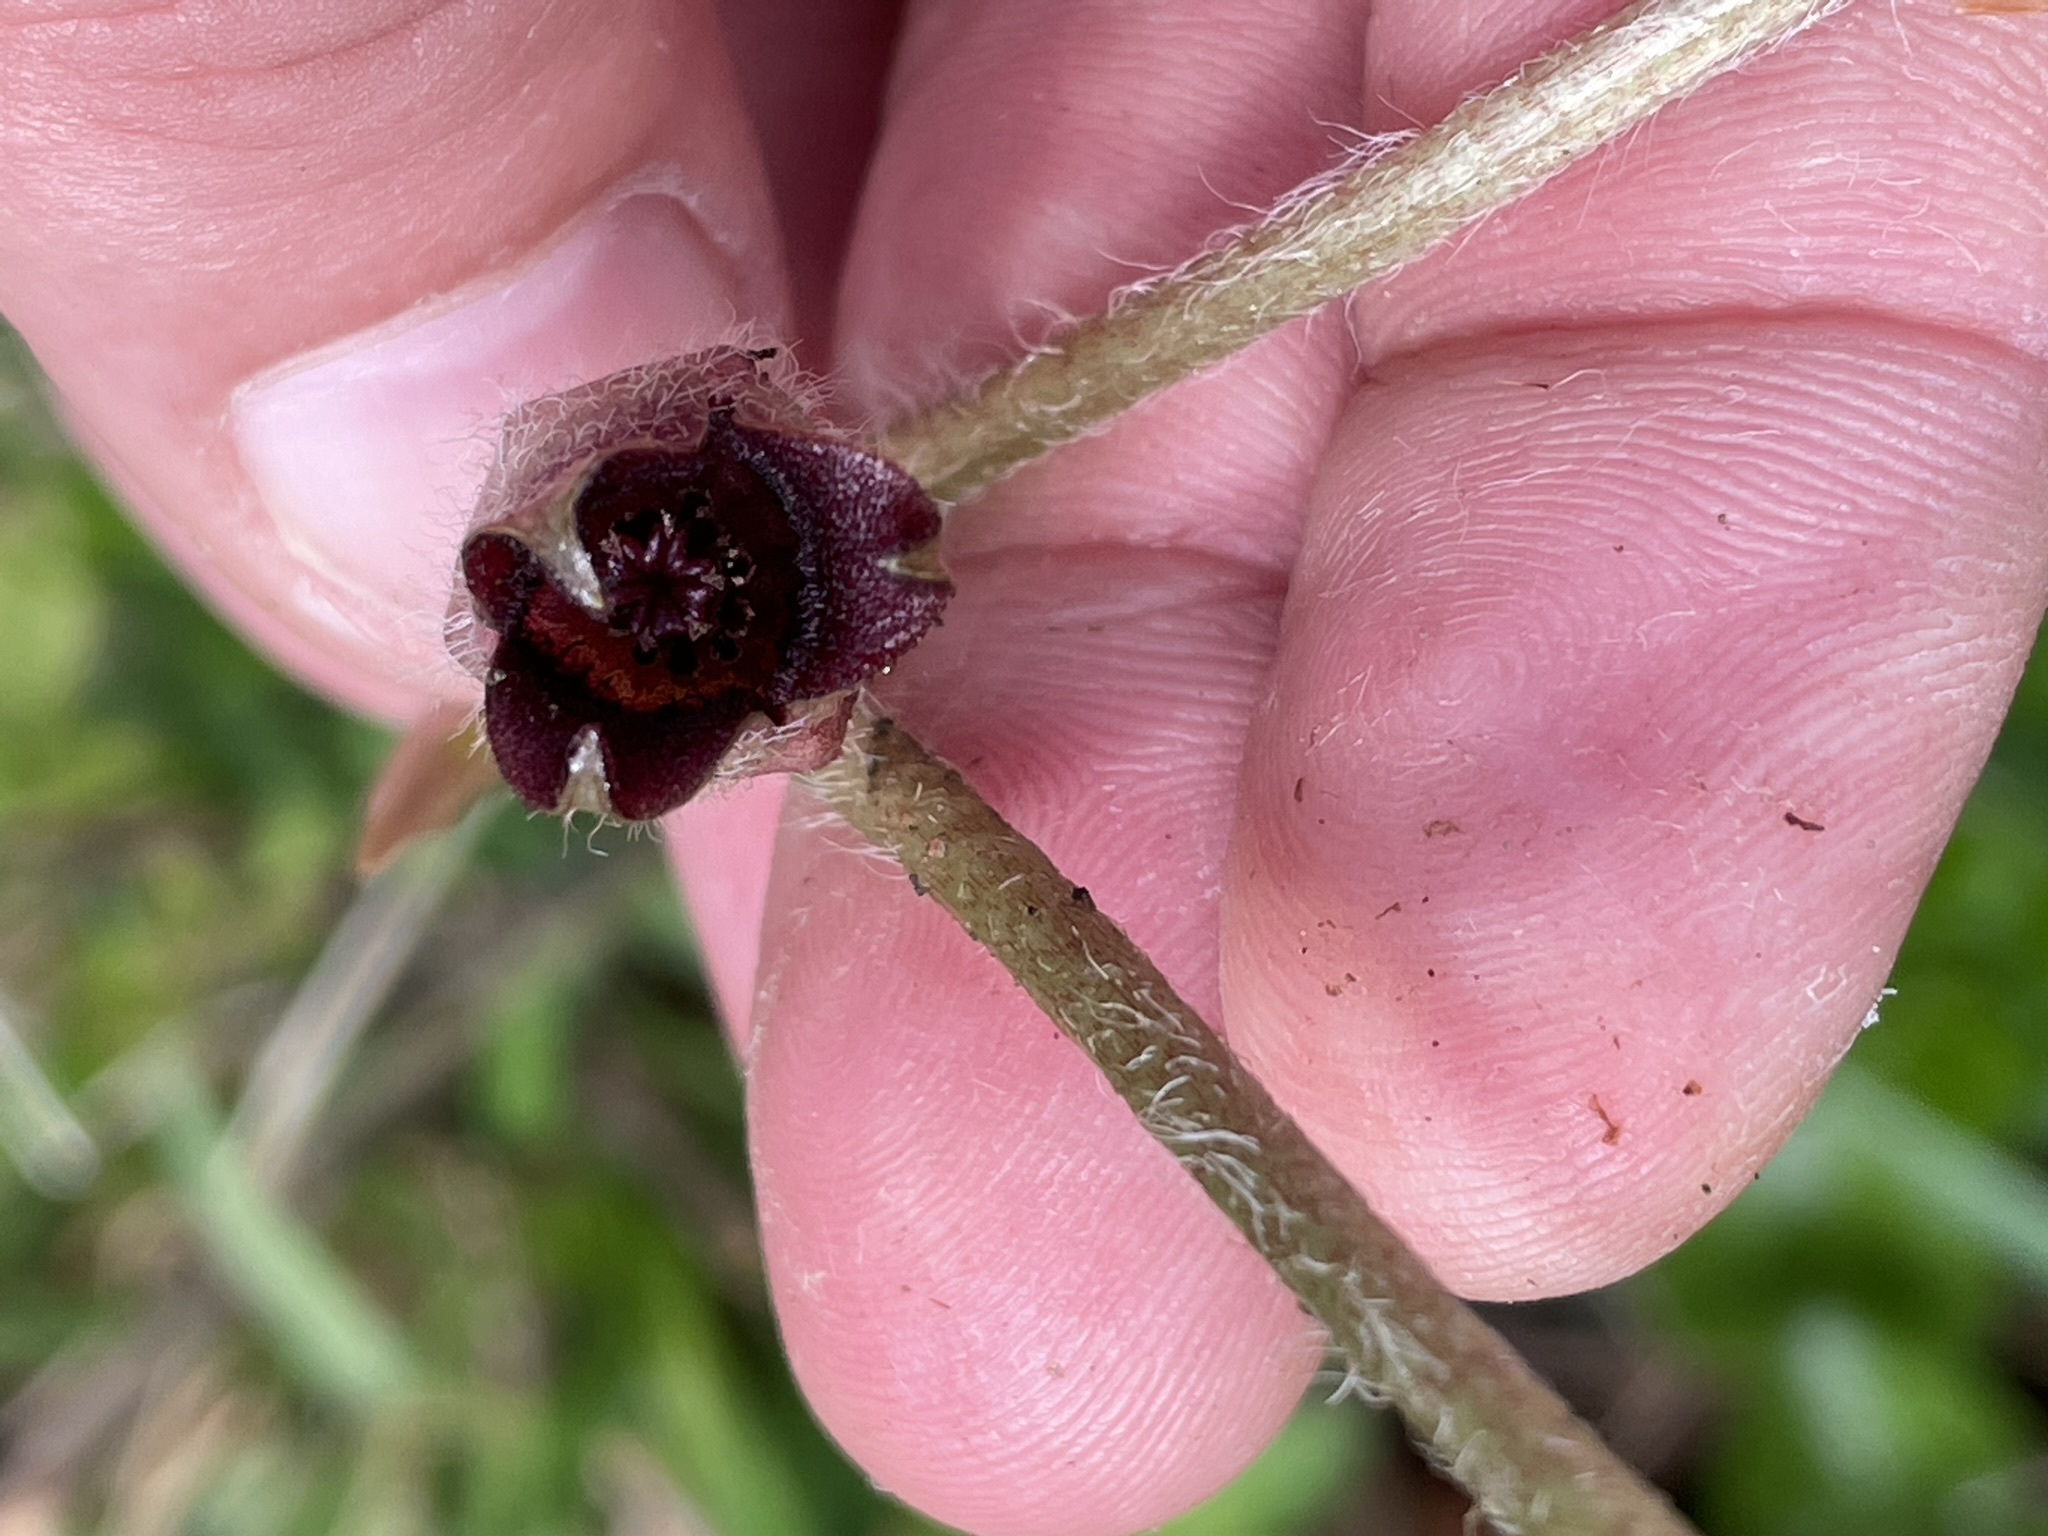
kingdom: Plantae
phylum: Tracheophyta
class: Magnoliopsida
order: Piperales
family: Aristolochiaceae
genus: Asarum
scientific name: Asarum europaeum
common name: Asarabacca
